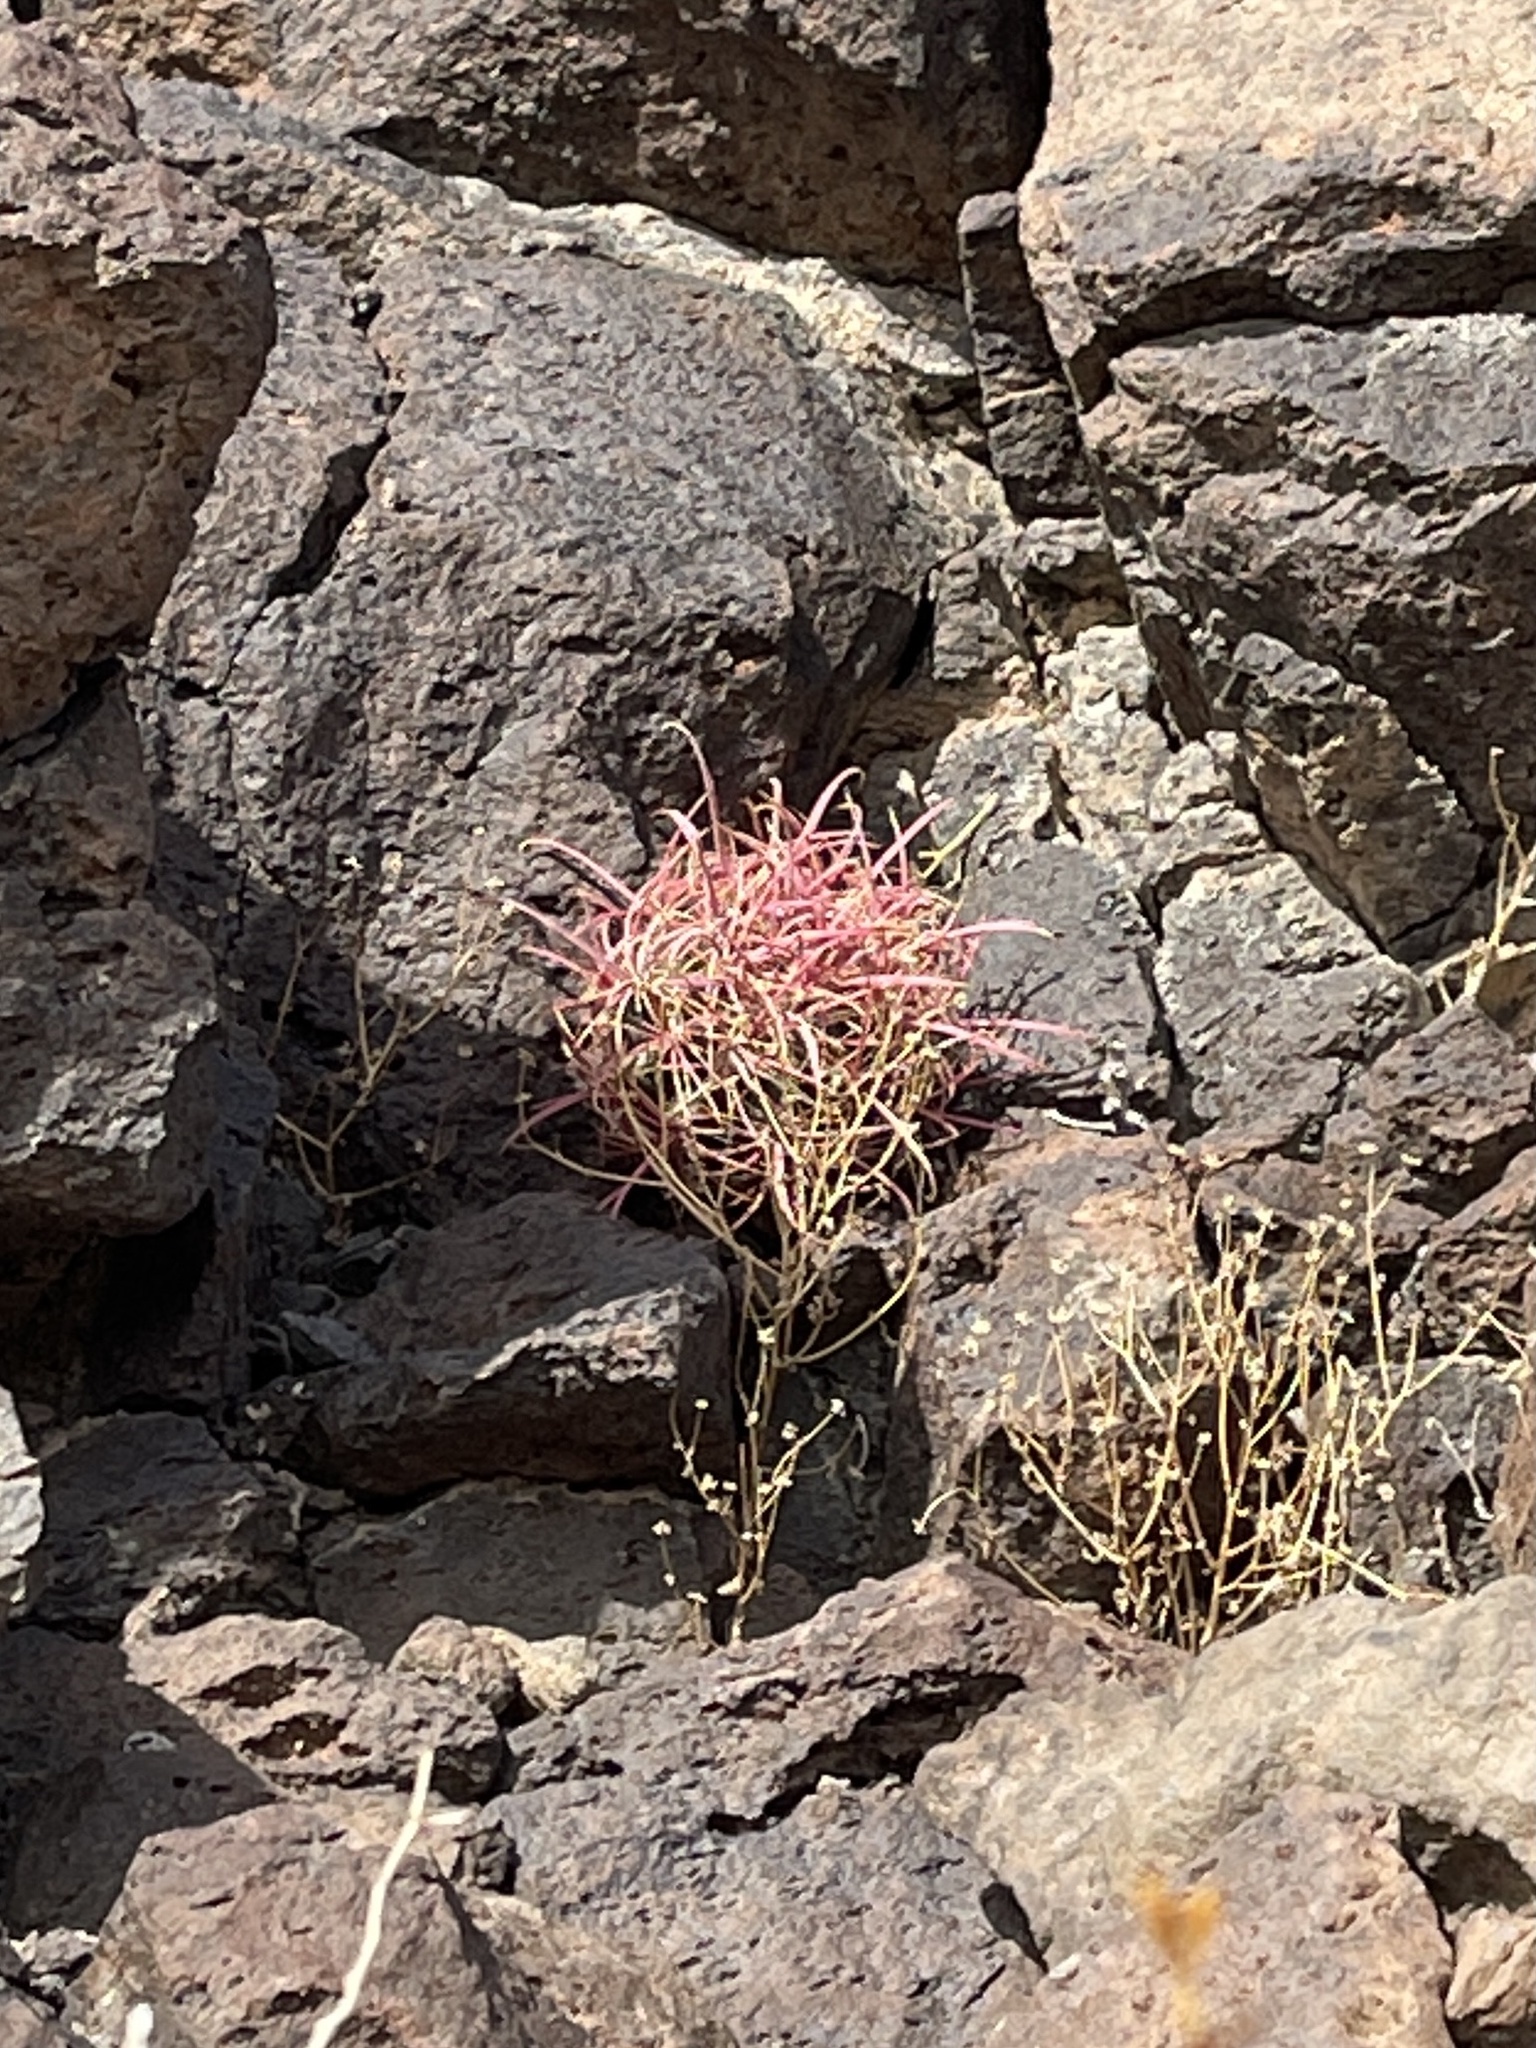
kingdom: Plantae
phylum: Tracheophyta
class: Magnoliopsida
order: Caryophyllales
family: Cactaceae
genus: Ferocactus
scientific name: Ferocactus cylindraceus
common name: California barrel cactus
